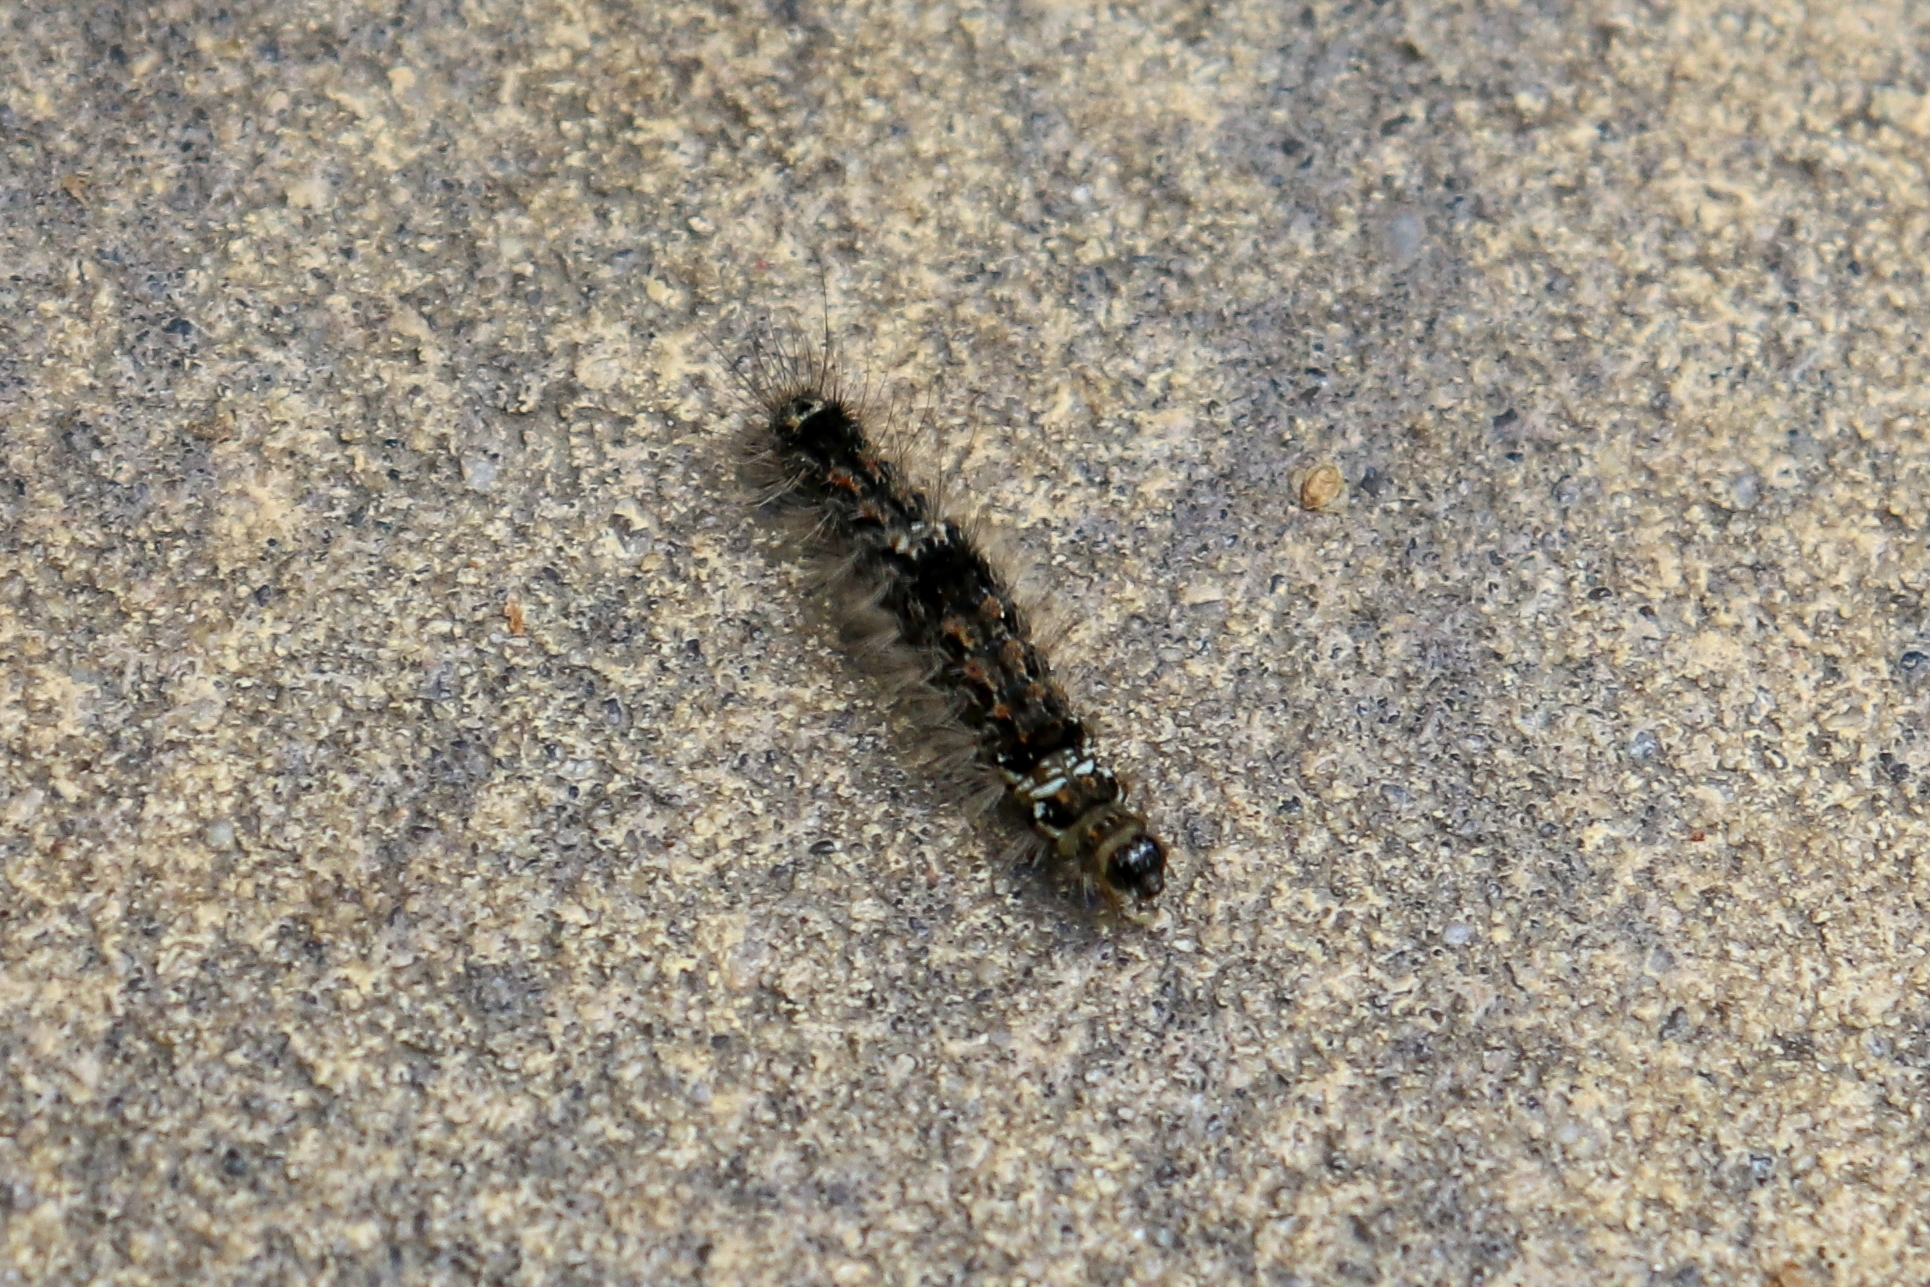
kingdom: Animalia
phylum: Arthropoda
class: Insecta
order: Lepidoptera
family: Erebidae
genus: Wittia
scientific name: Wittia sororcula
